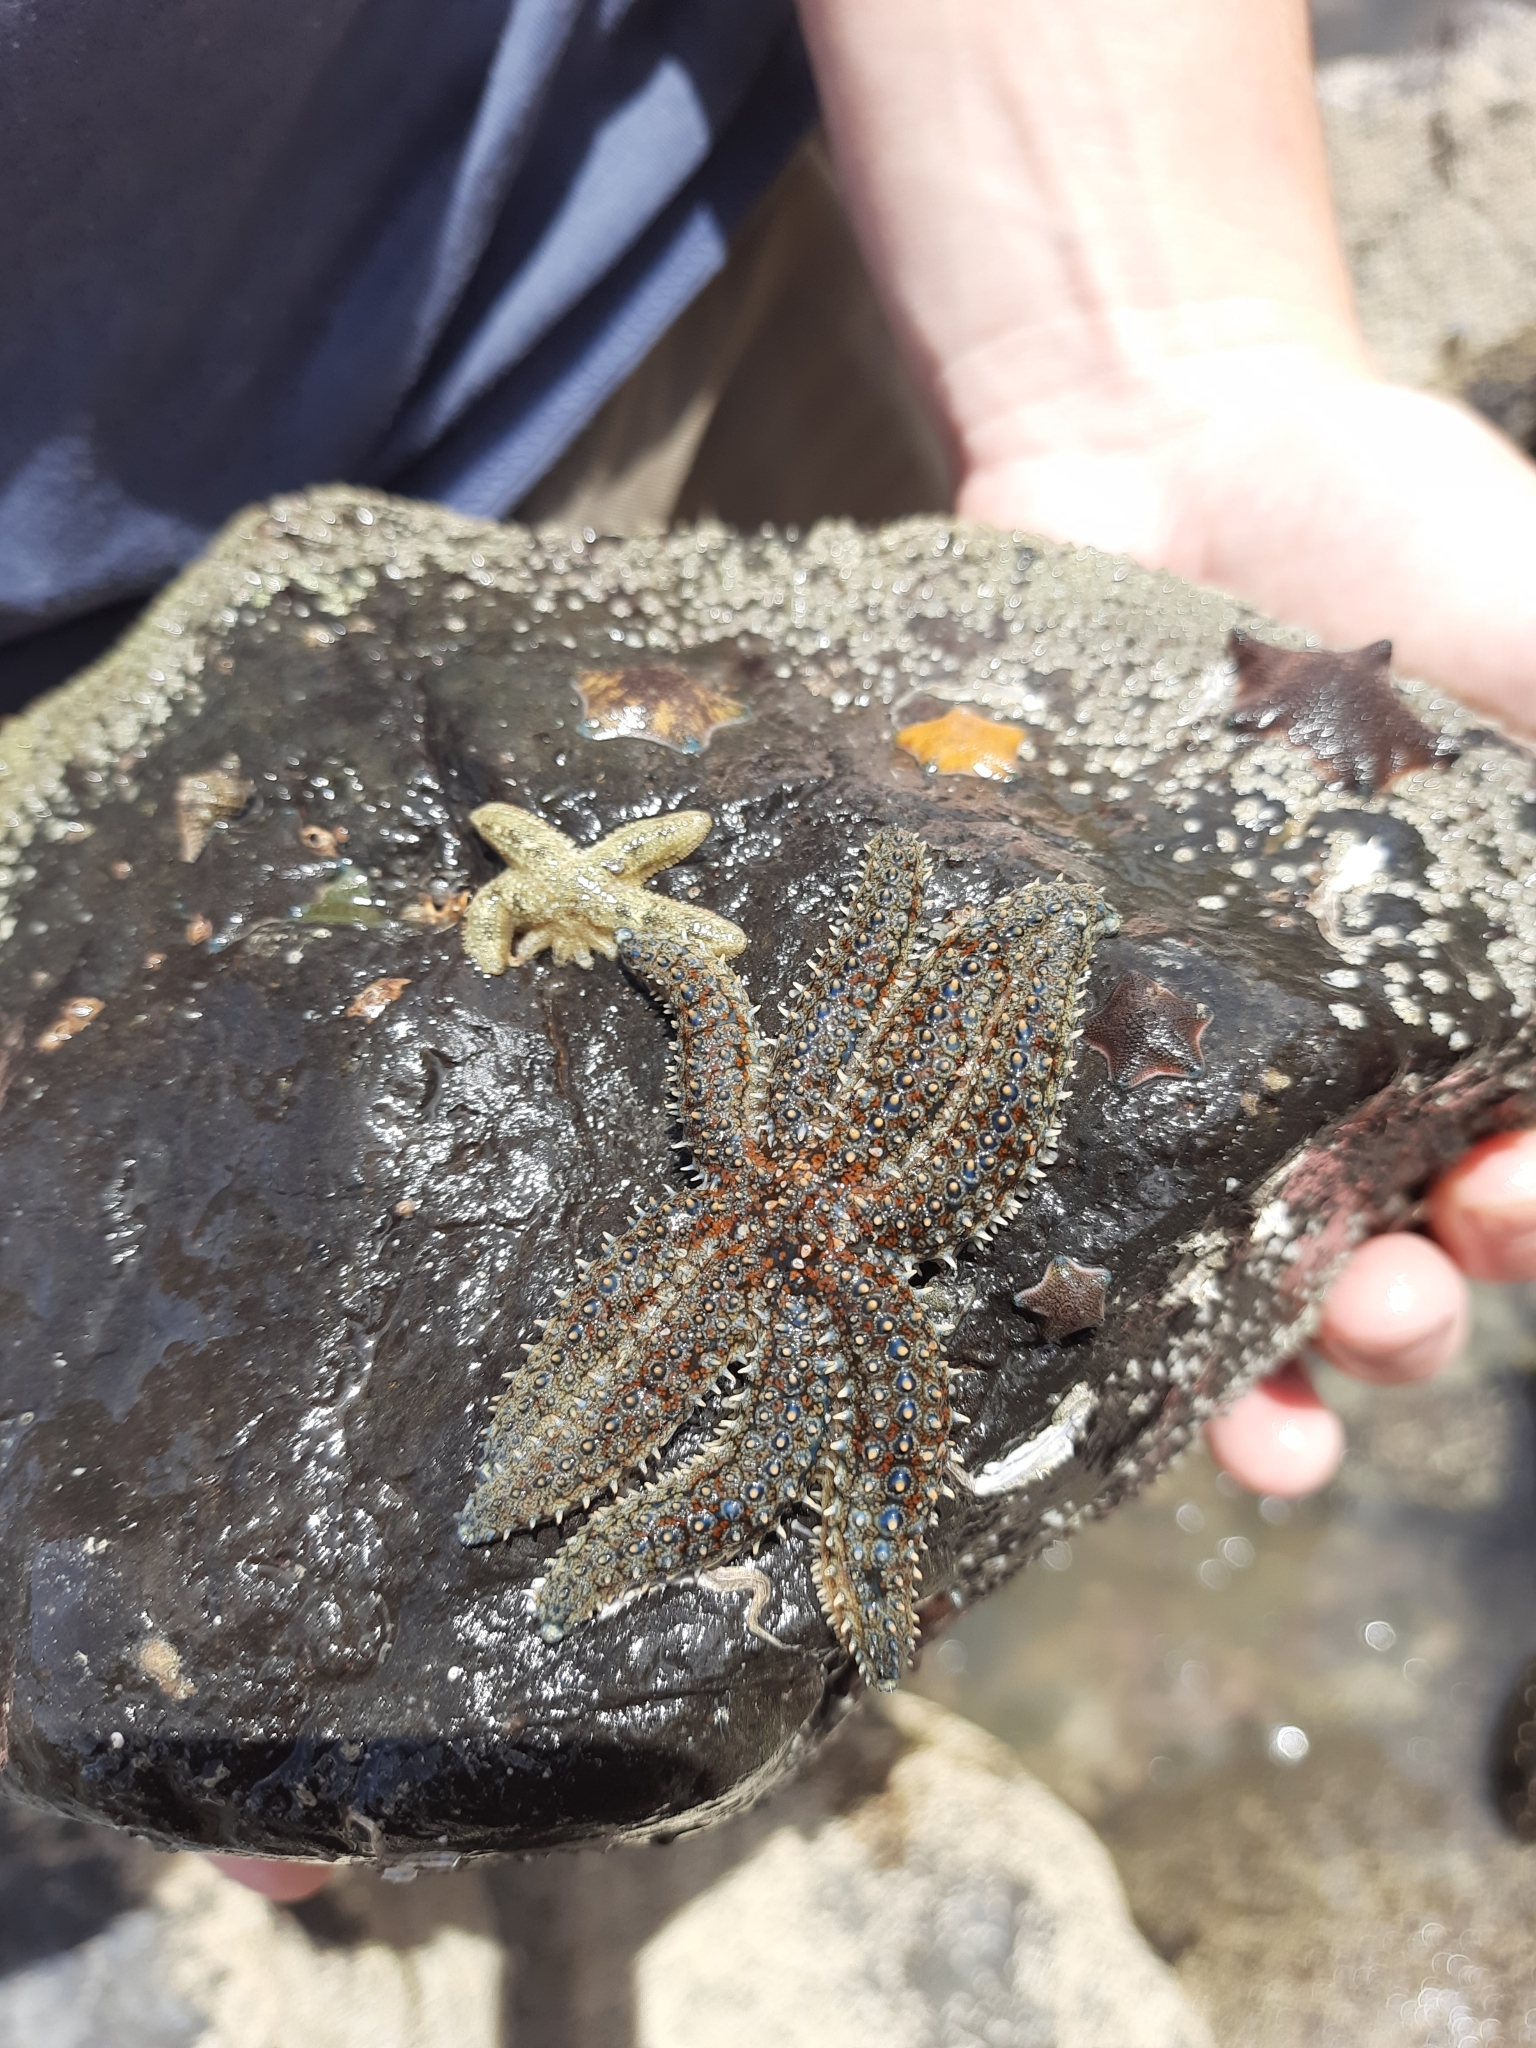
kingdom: Animalia
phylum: Echinodermata
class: Asteroidea
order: Forcipulatida
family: Asteriidae
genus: Coscinasterias
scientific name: Coscinasterias muricata
